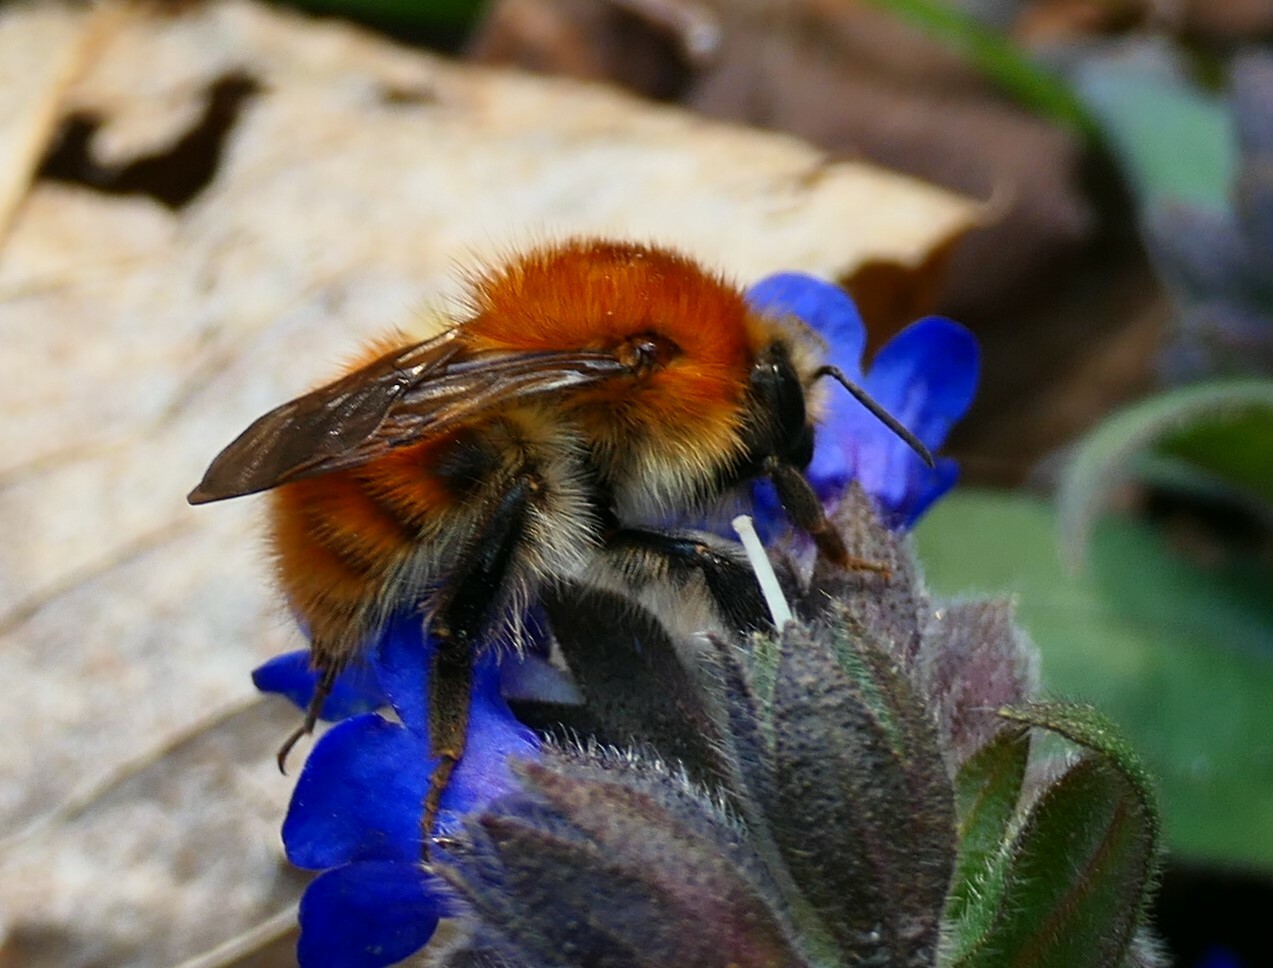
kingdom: Animalia
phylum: Arthropoda
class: Insecta
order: Hymenoptera
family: Apidae
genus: Bombus
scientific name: Bombus pascuorum
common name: Common carder bee
